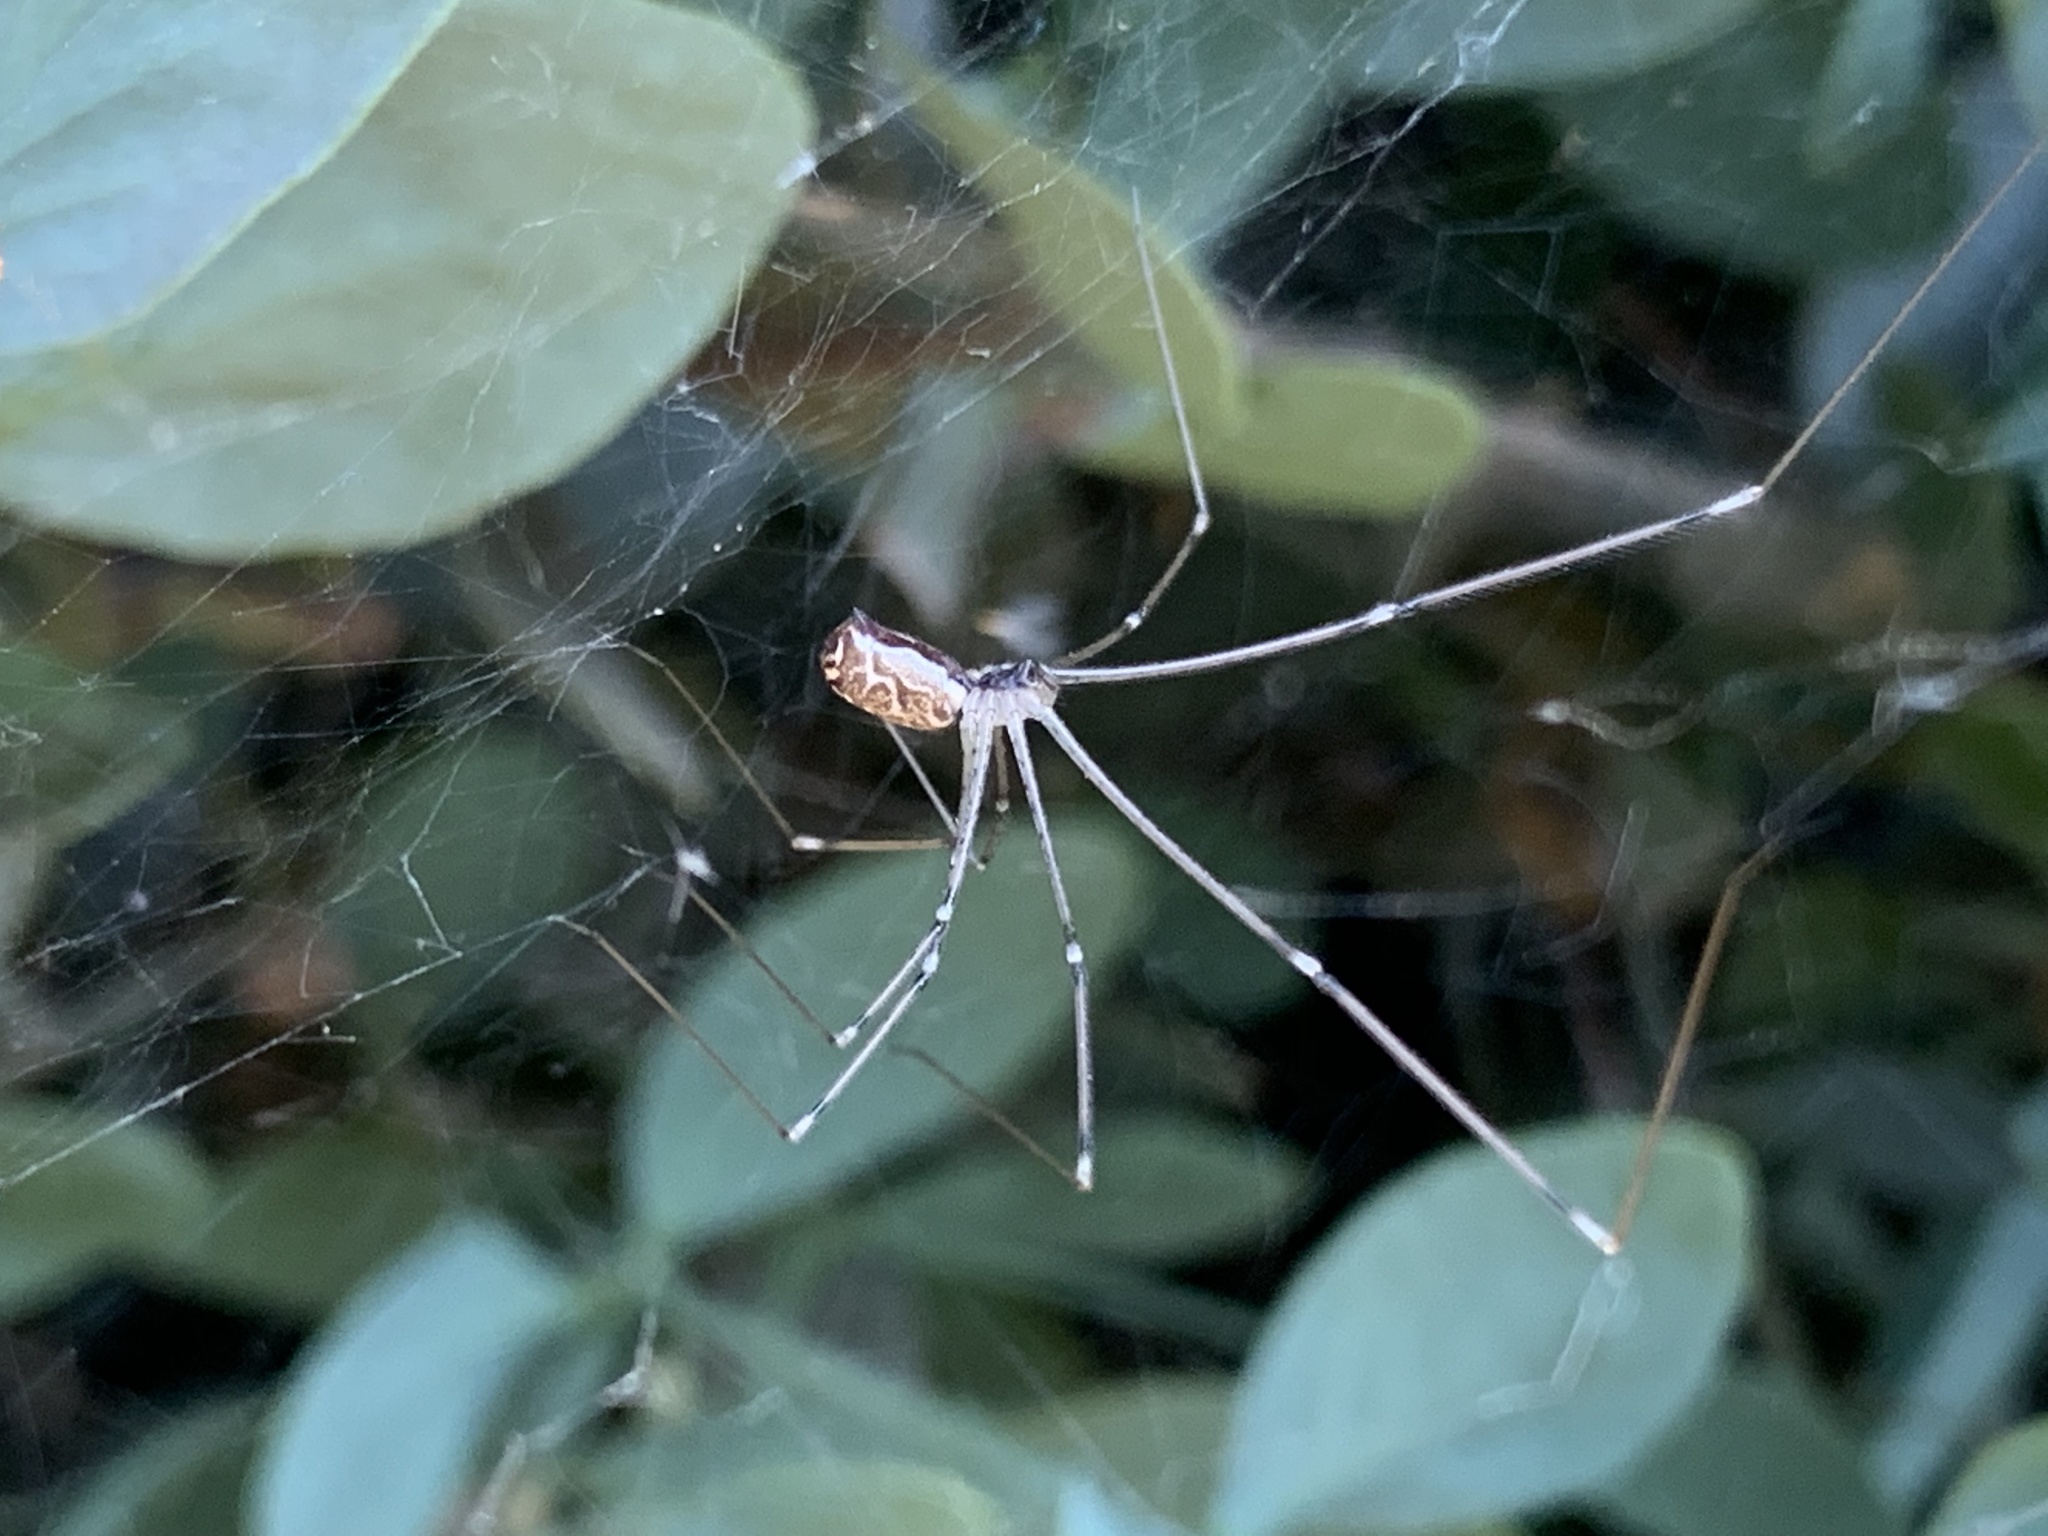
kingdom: Animalia
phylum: Arthropoda
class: Arachnida
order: Araneae
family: Pholcidae
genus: Holocnemus
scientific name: Holocnemus pluchei
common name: Marbled cellar spider
